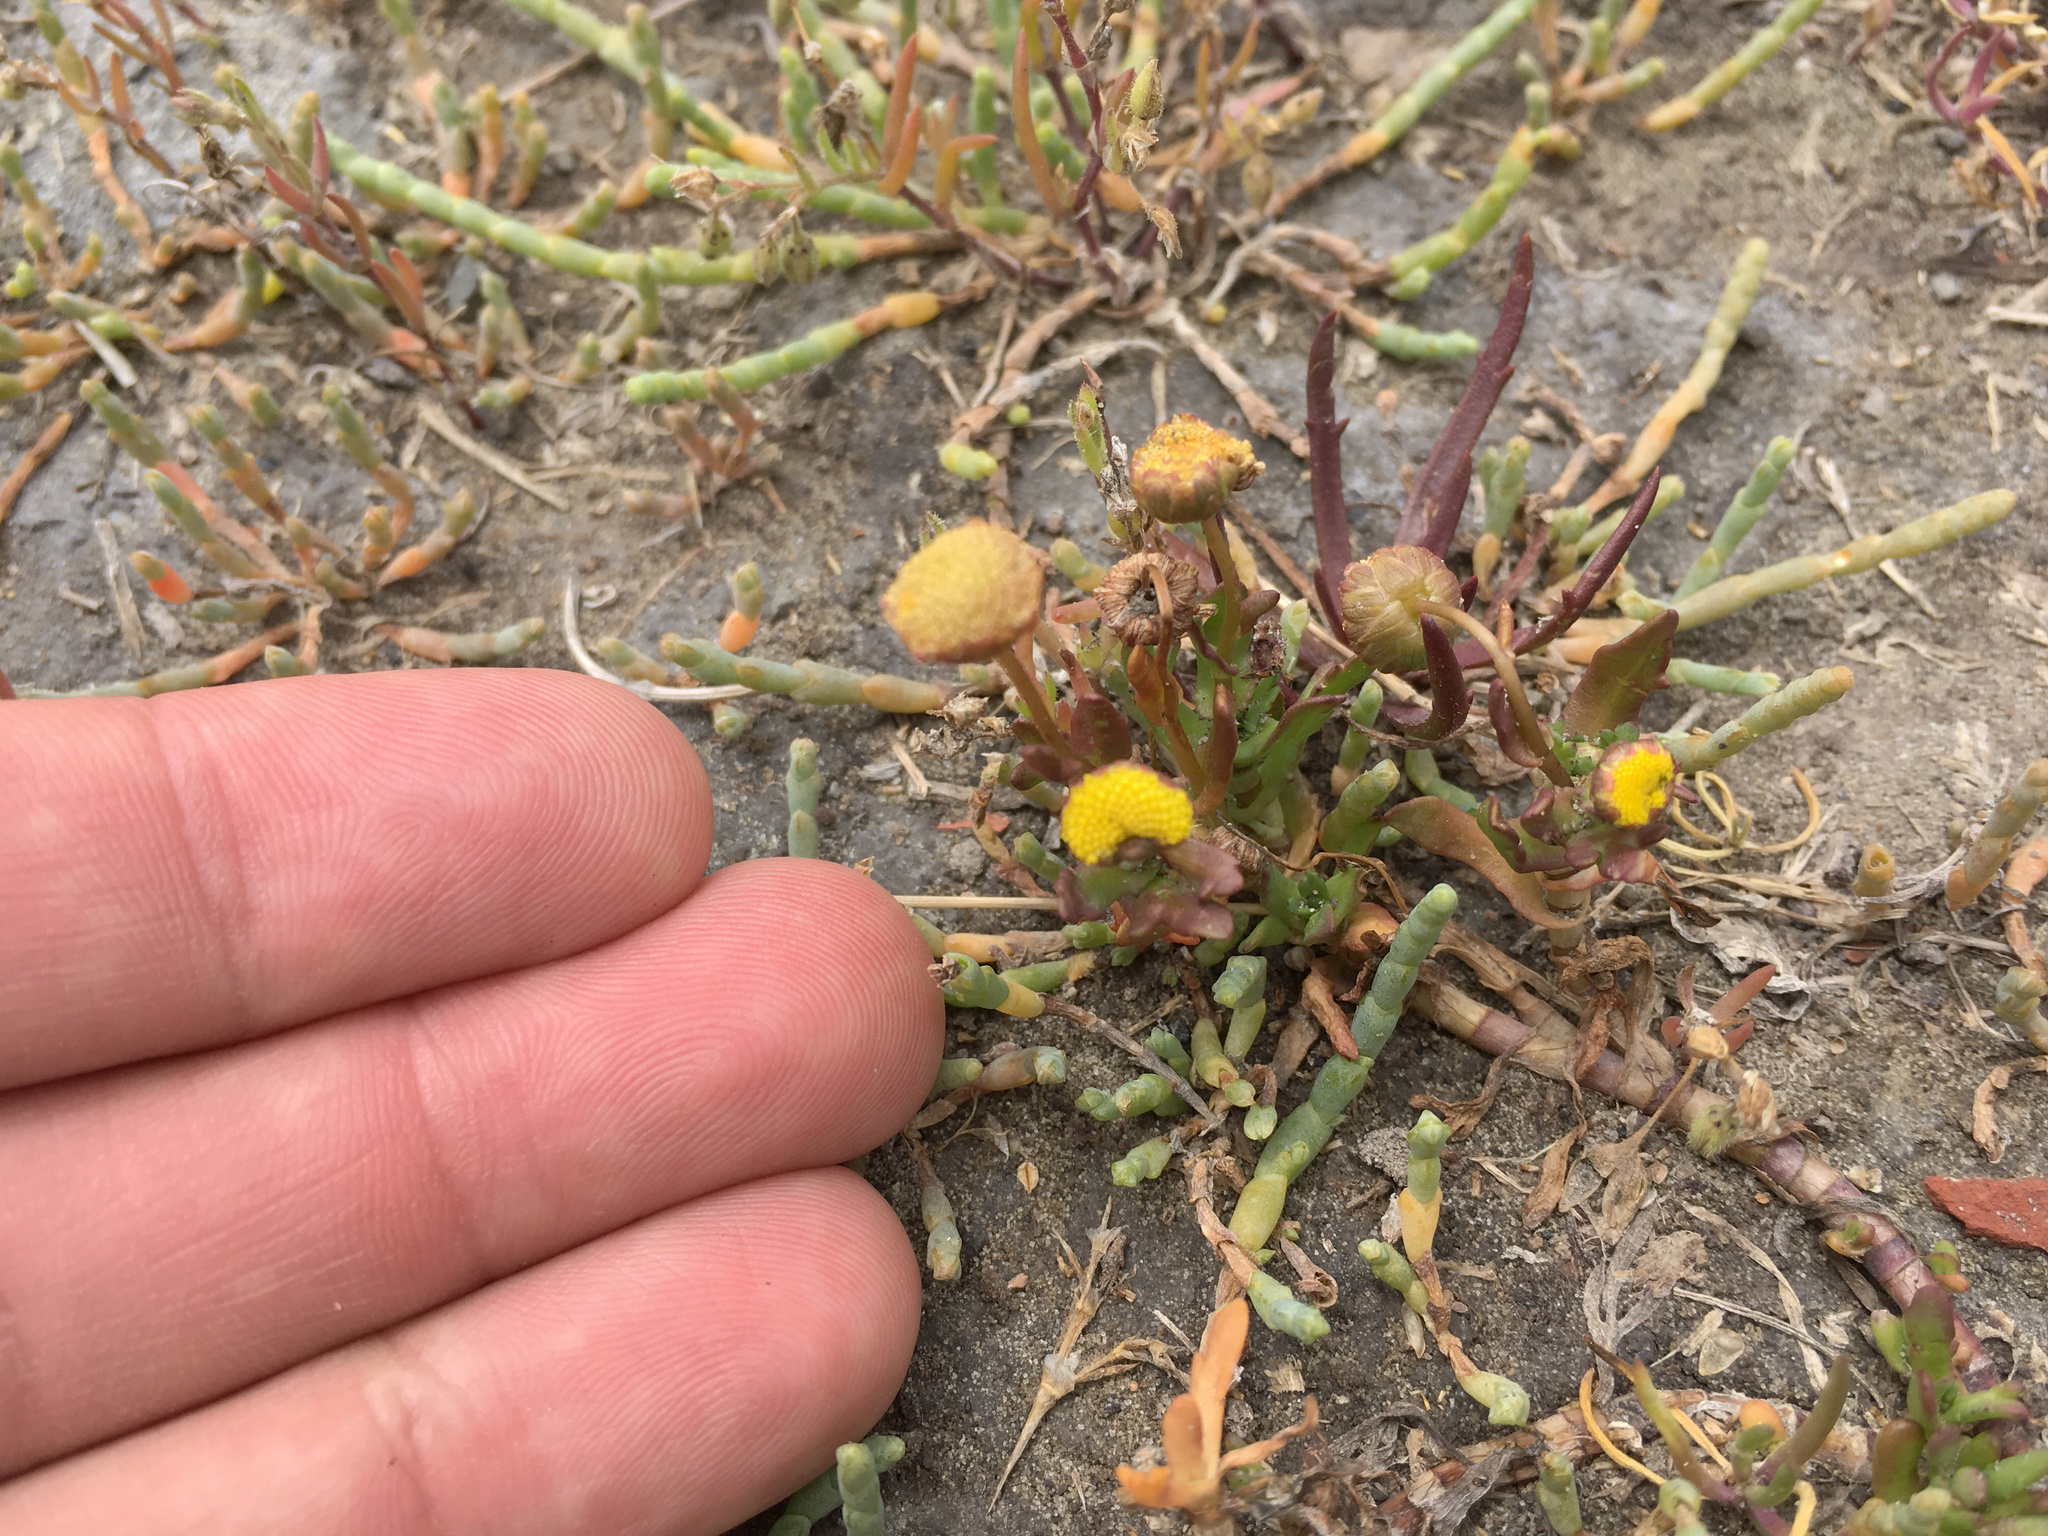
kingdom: Plantae
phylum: Tracheophyta
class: Magnoliopsida
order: Asterales
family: Asteraceae
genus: Cotula
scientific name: Cotula coronopifolia
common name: Buttonweed
